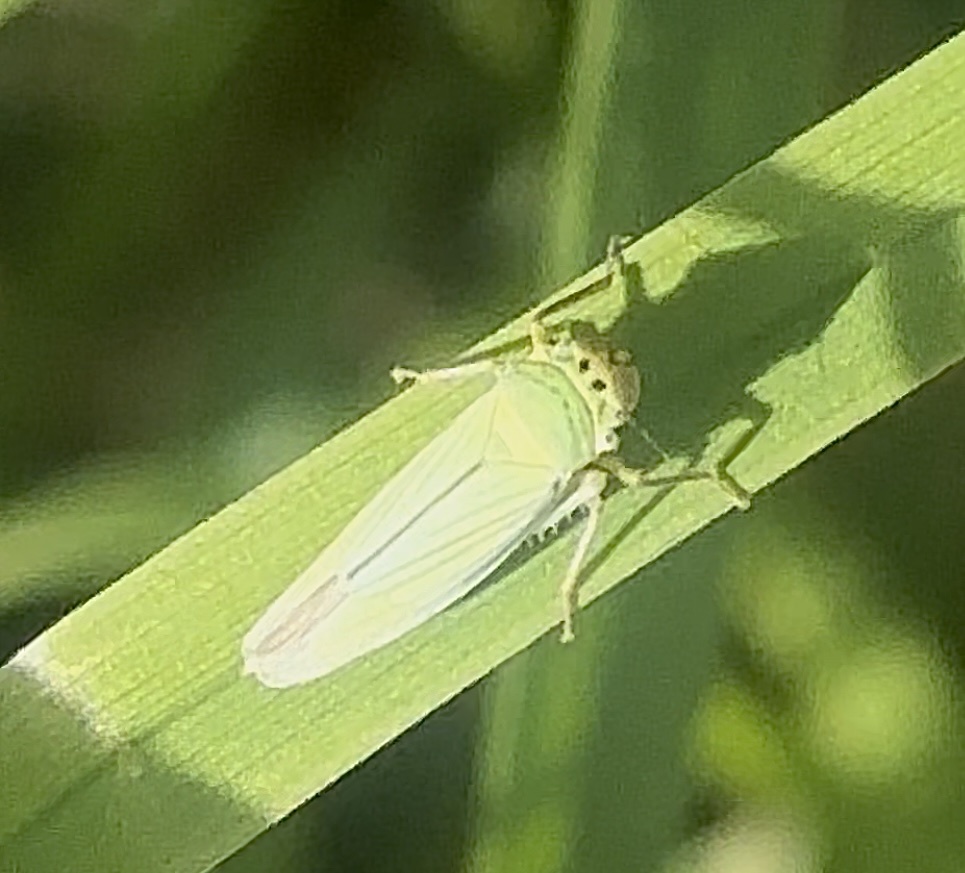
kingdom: Animalia
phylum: Arthropoda
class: Insecta
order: Hemiptera
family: Cicadellidae
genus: Cicadella
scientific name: Cicadella viridis
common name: Leafhopper
